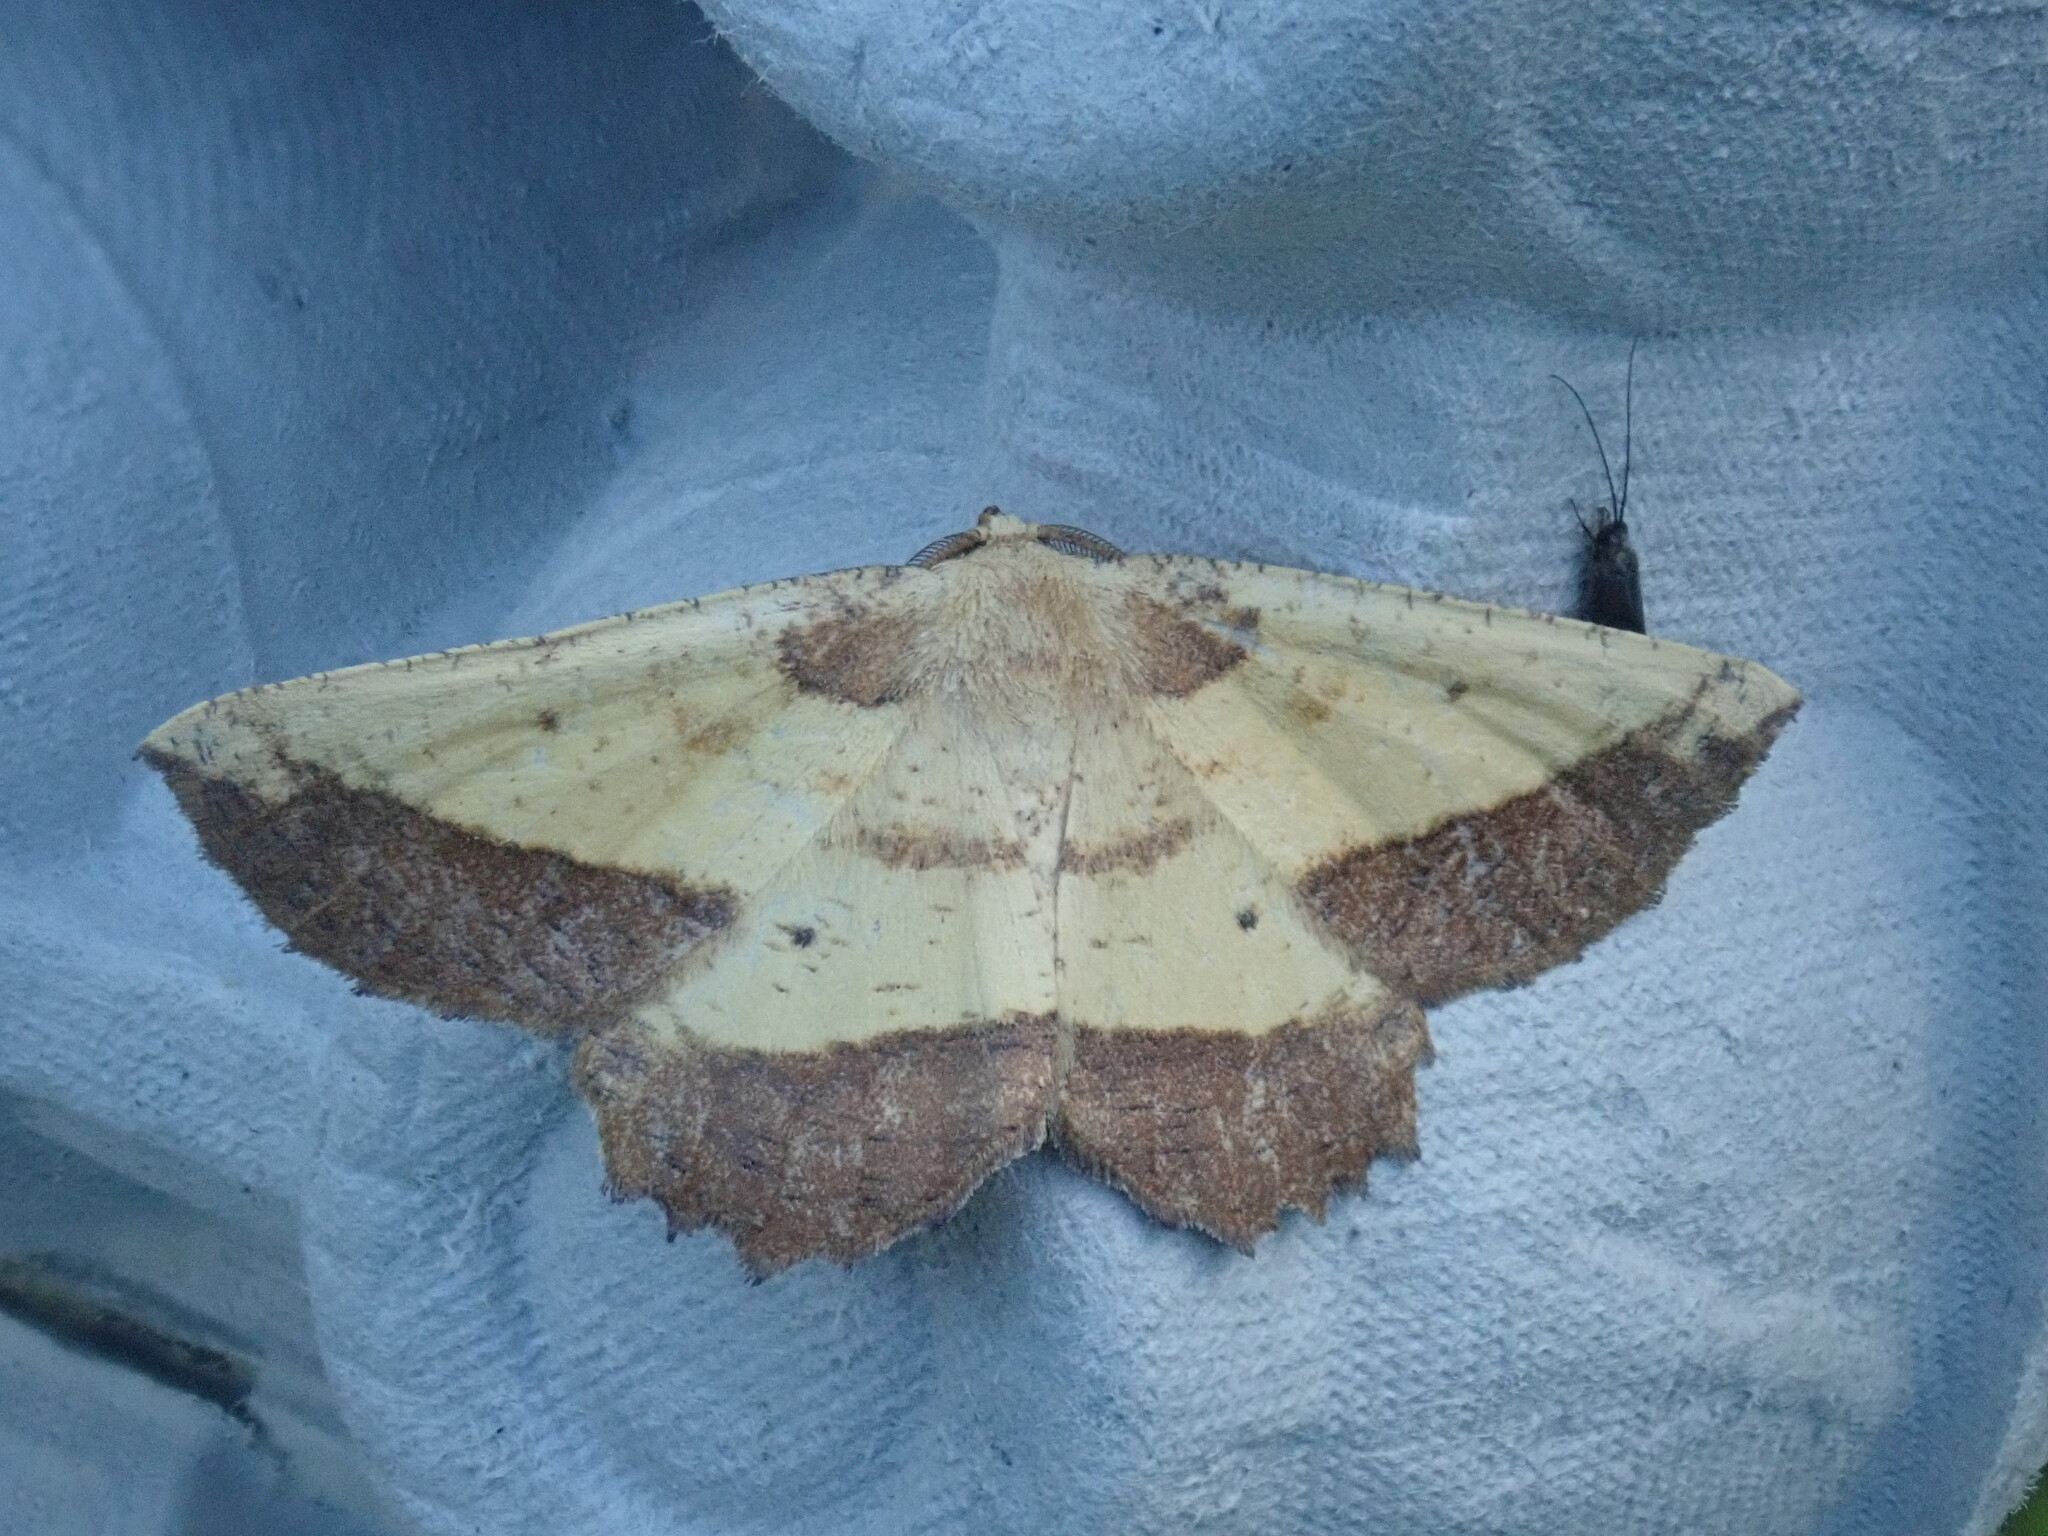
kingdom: Animalia
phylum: Arthropoda
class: Insecta
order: Lepidoptera
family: Geometridae
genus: Euchlaena
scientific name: Euchlaena serrata
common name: Saw wing
